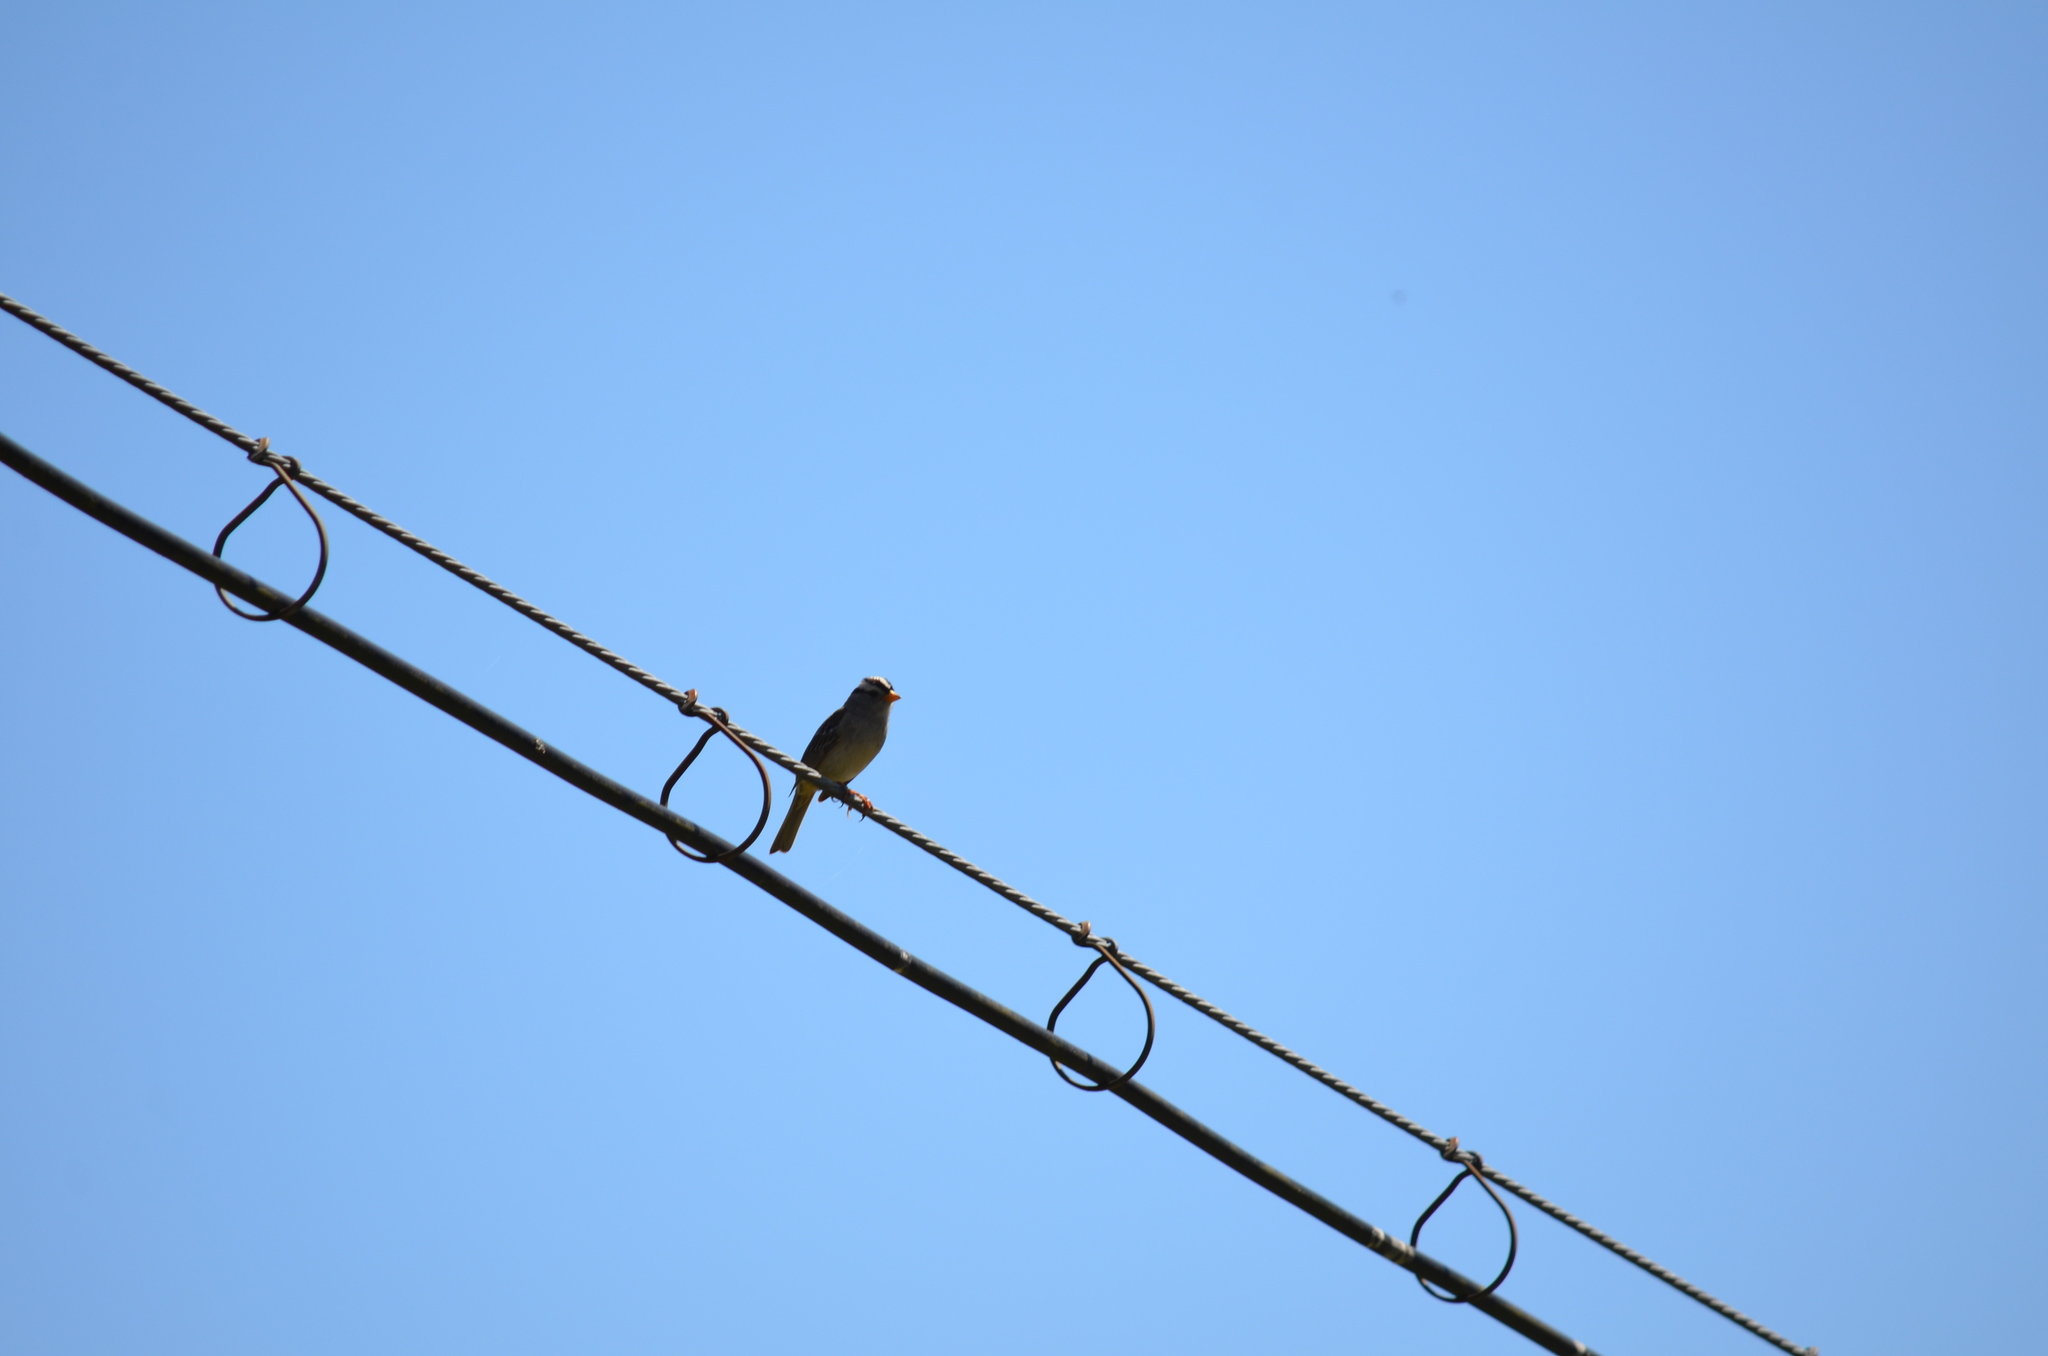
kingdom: Animalia
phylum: Chordata
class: Aves
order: Passeriformes
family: Passerellidae
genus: Zonotrichia
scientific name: Zonotrichia leucophrys
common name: White-crowned sparrow
